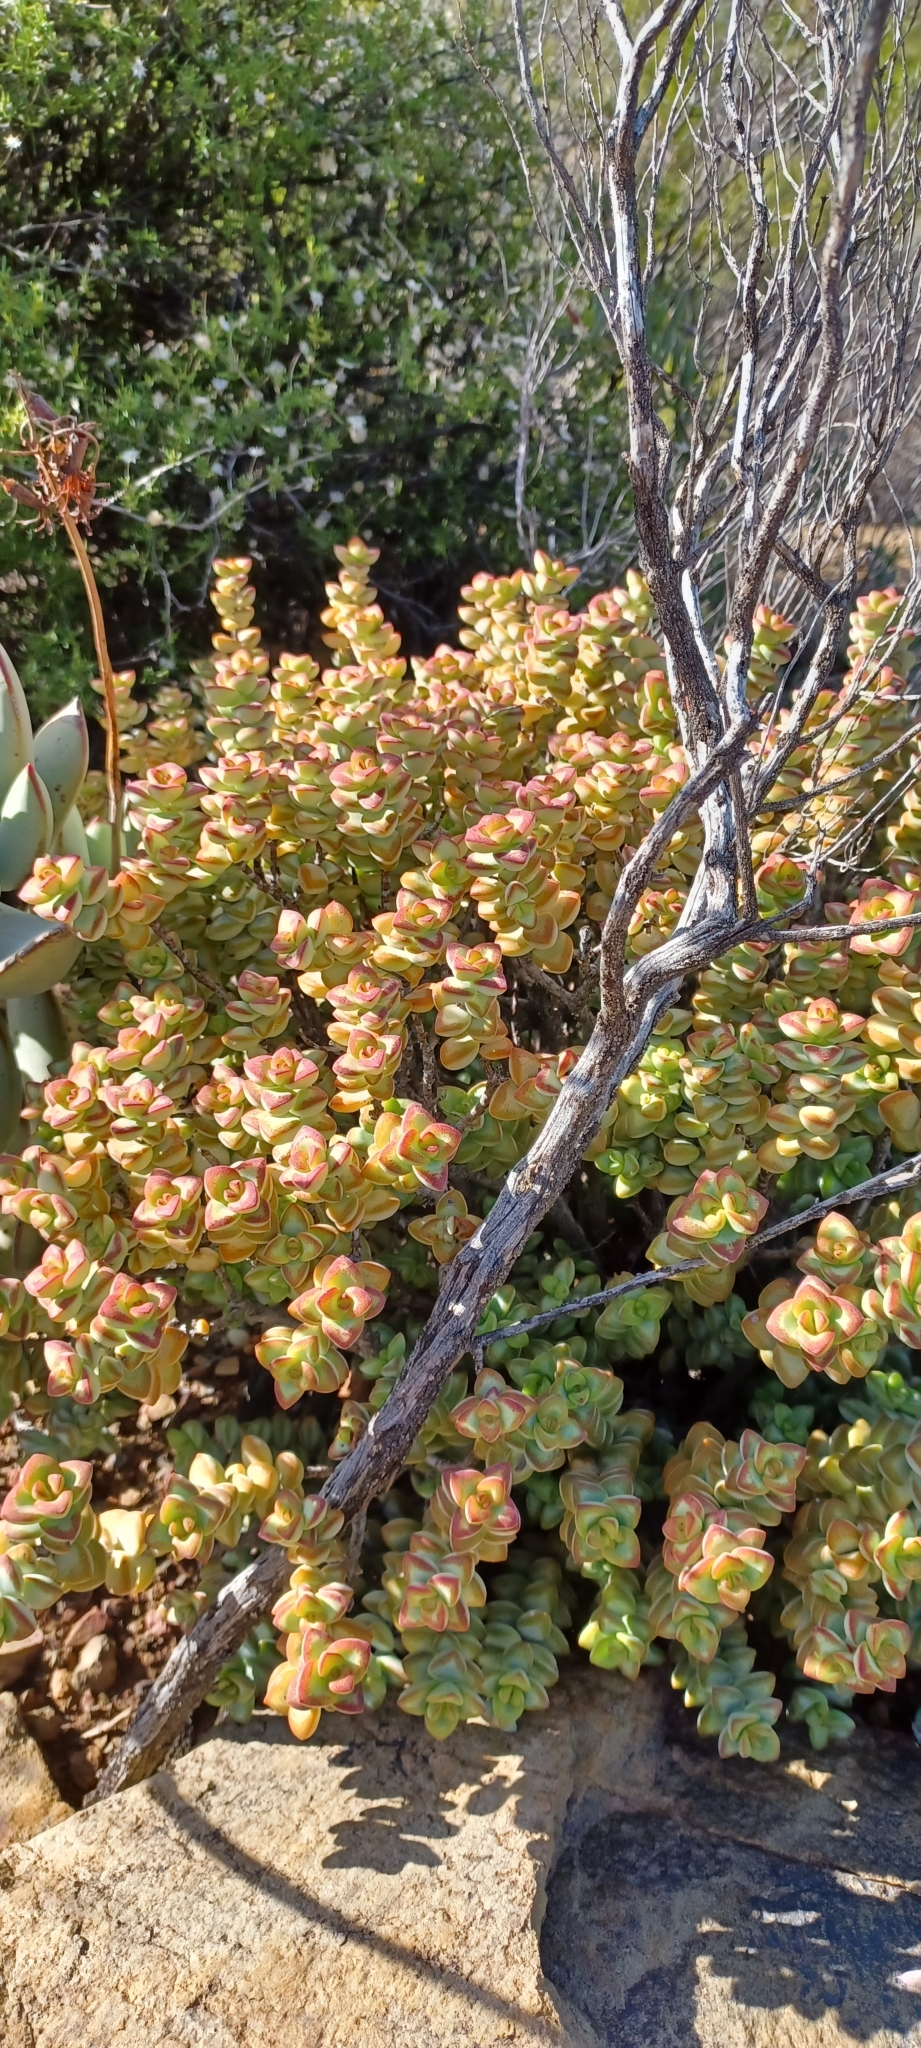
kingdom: Plantae
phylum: Tracheophyta
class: Magnoliopsida
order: Saxifragales
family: Crassulaceae
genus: Crassula
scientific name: Crassula rupestris
